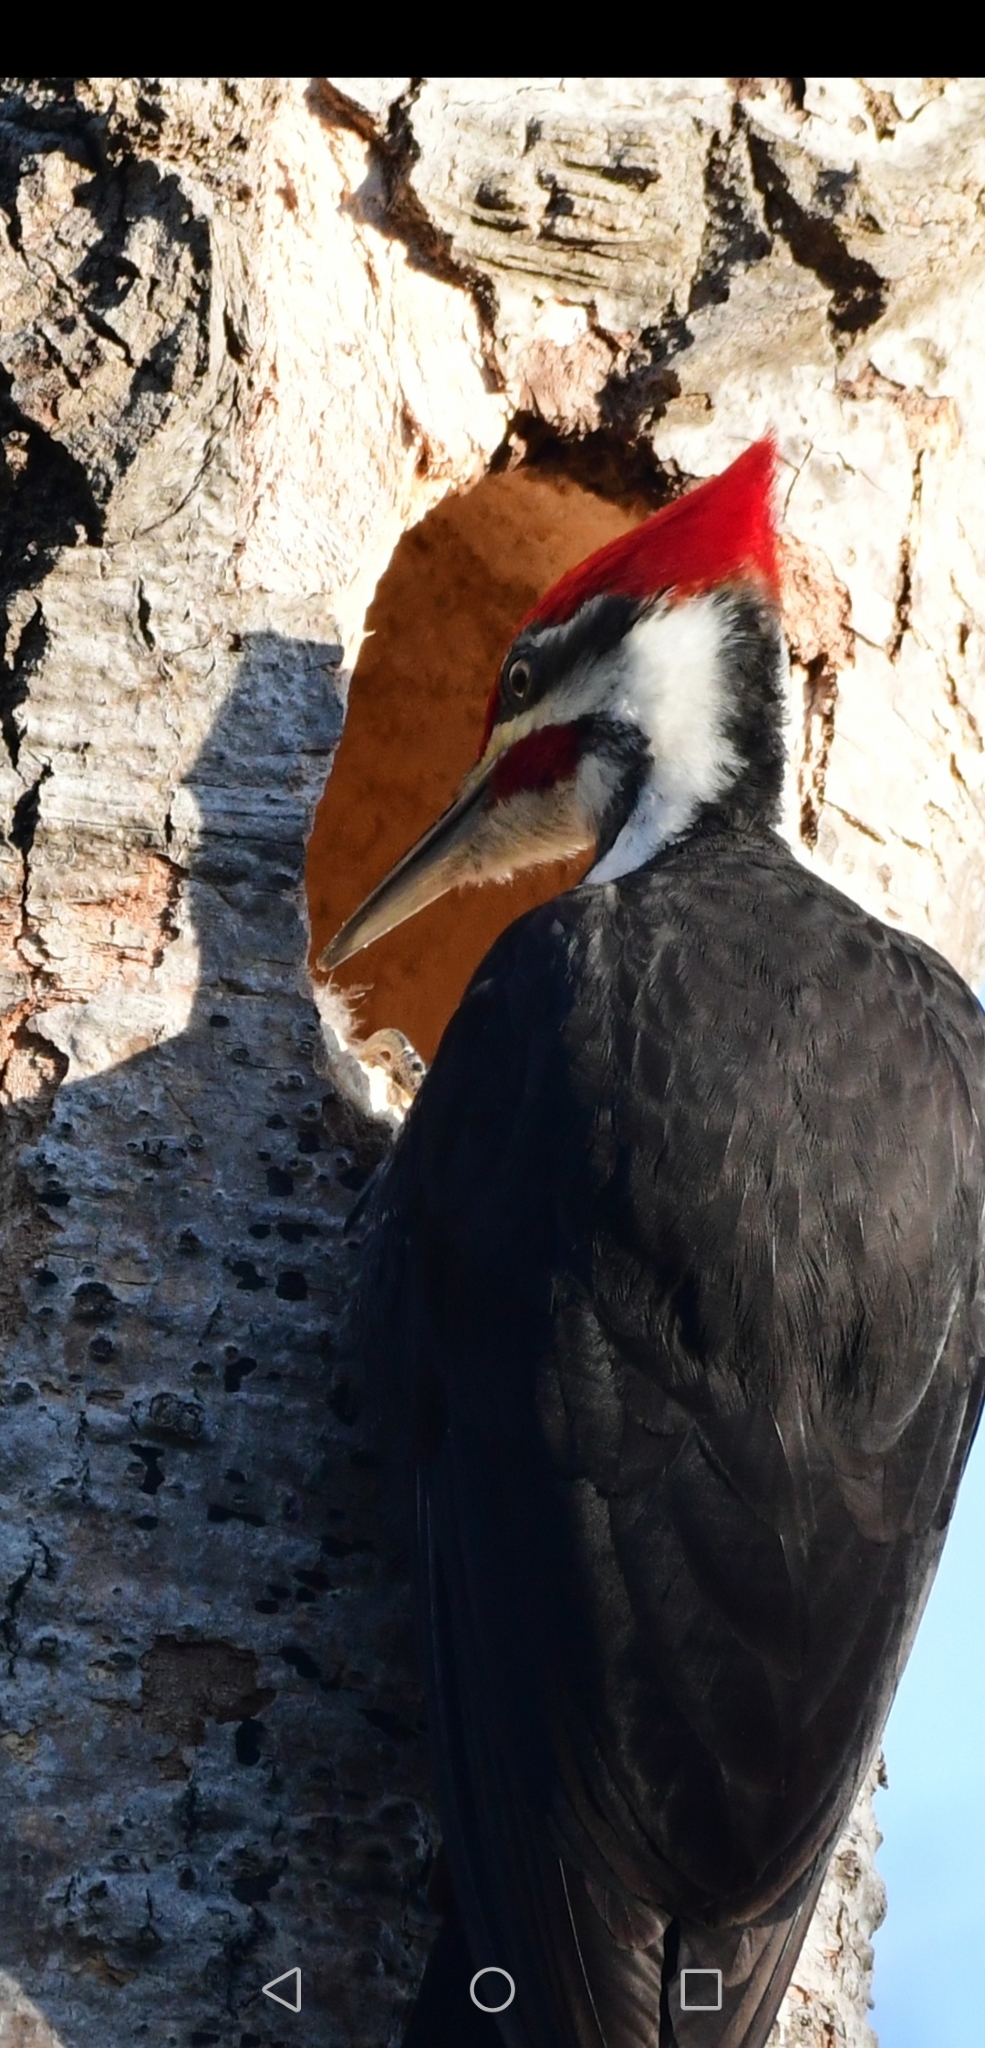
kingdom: Animalia
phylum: Chordata
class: Aves
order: Piciformes
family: Picidae
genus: Dryocopus
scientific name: Dryocopus pileatus
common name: Pileated woodpecker
